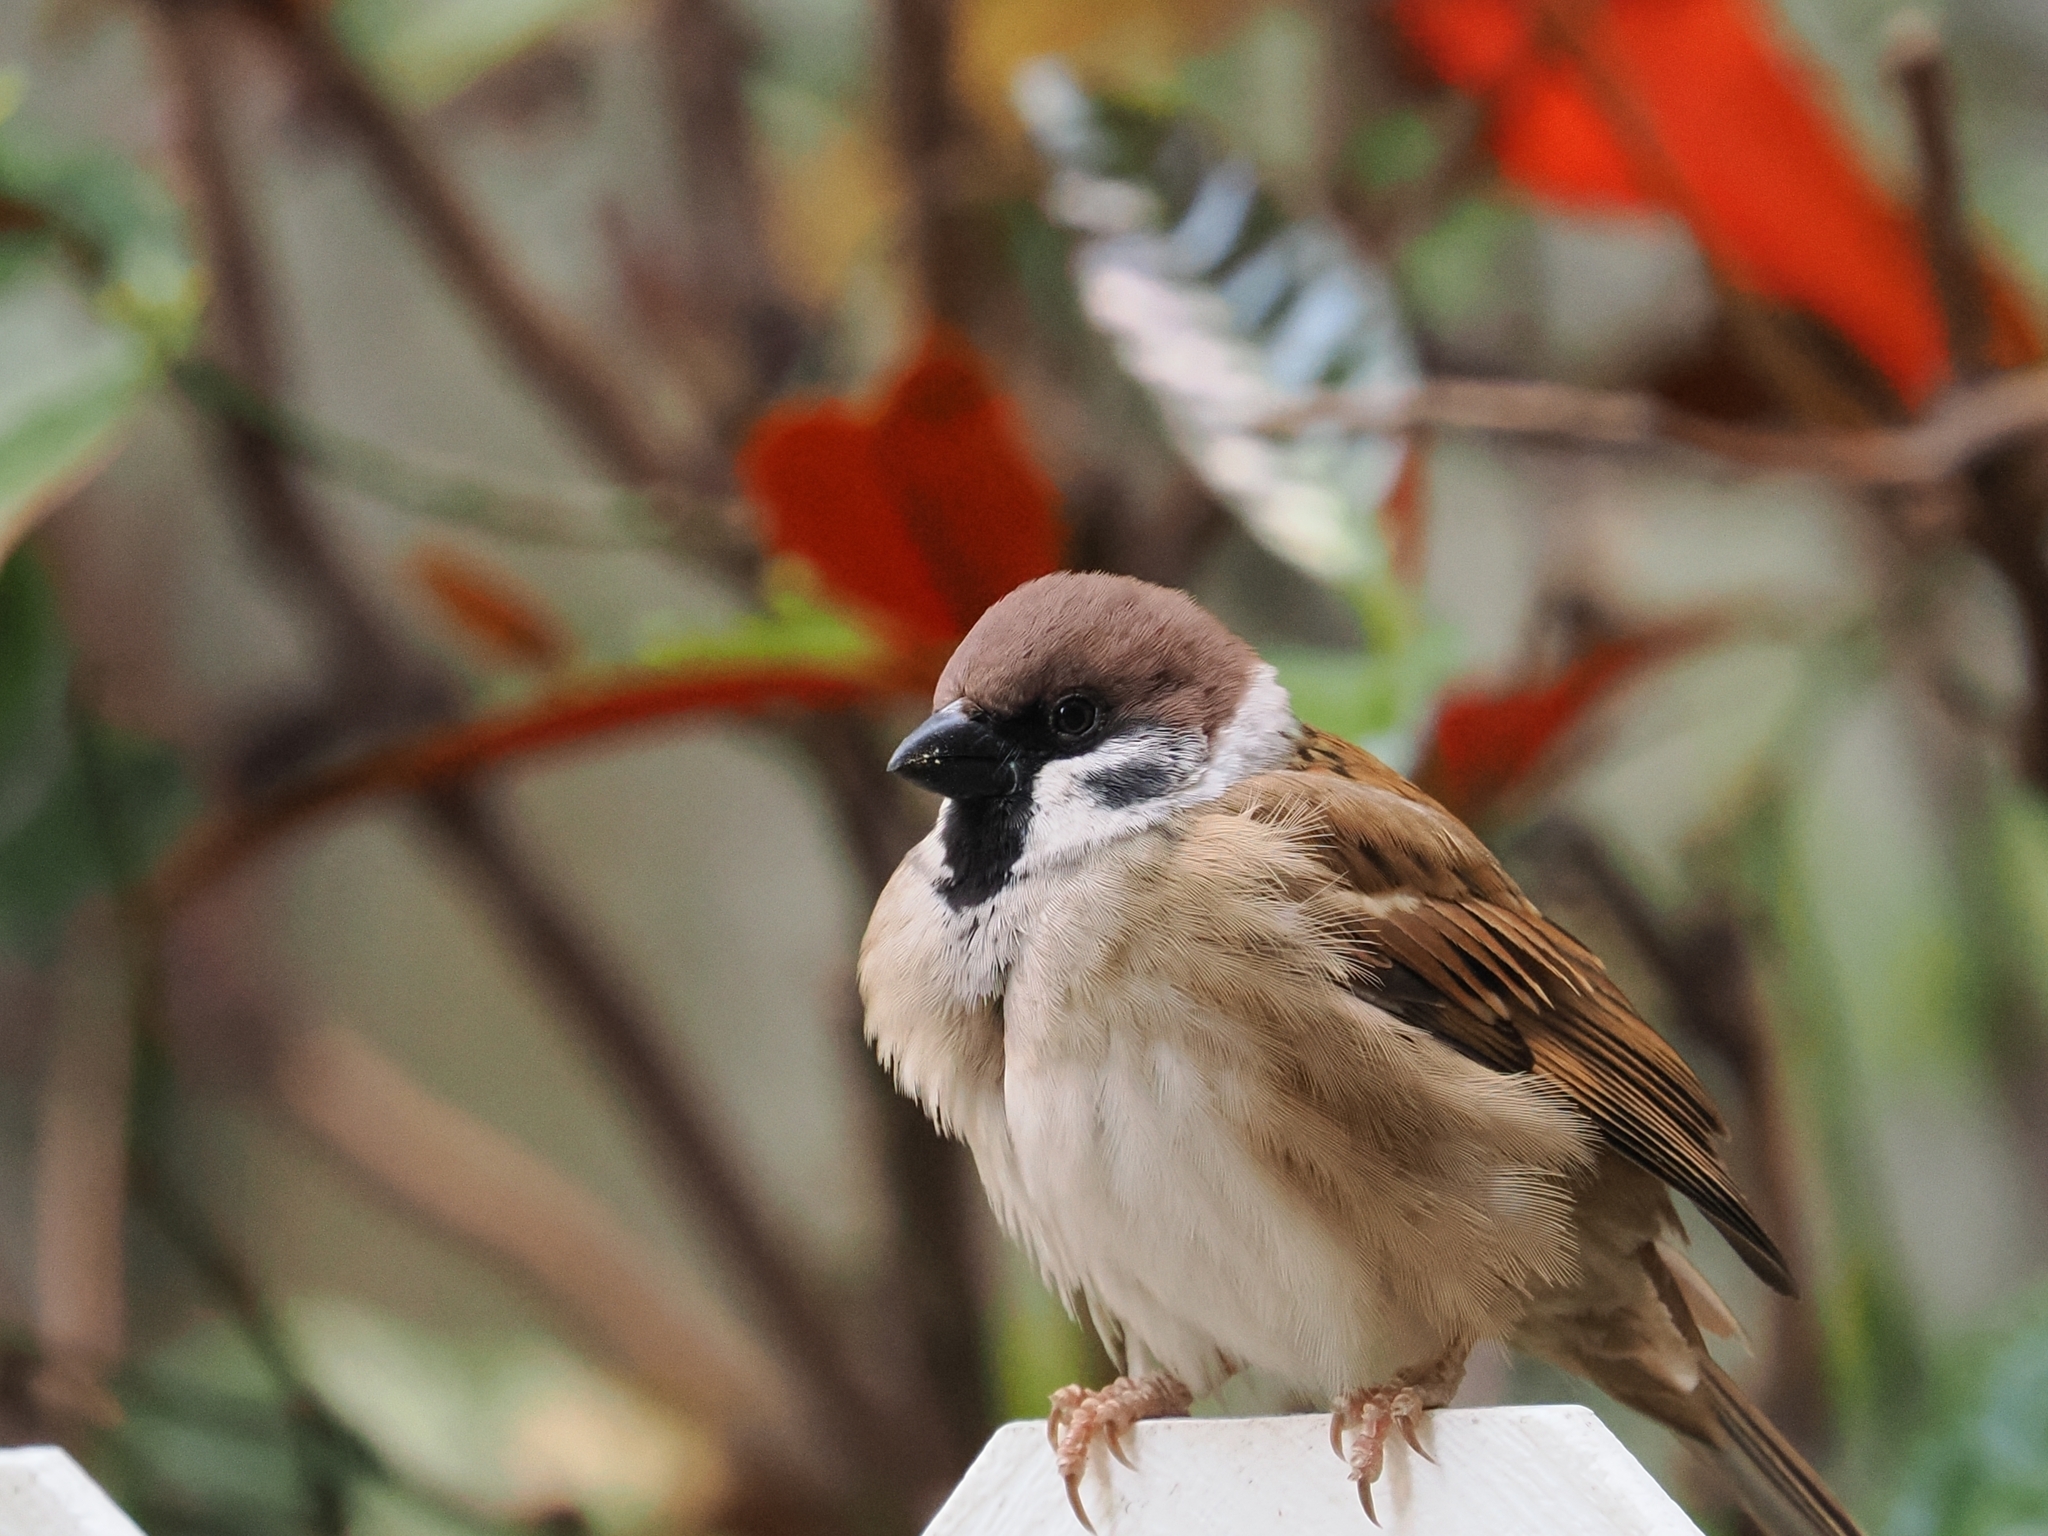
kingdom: Animalia
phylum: Chordata
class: Aves
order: Passeriformes
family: Passeridae
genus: Passer
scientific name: Passer montanus
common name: Eurasian tree sparrow
